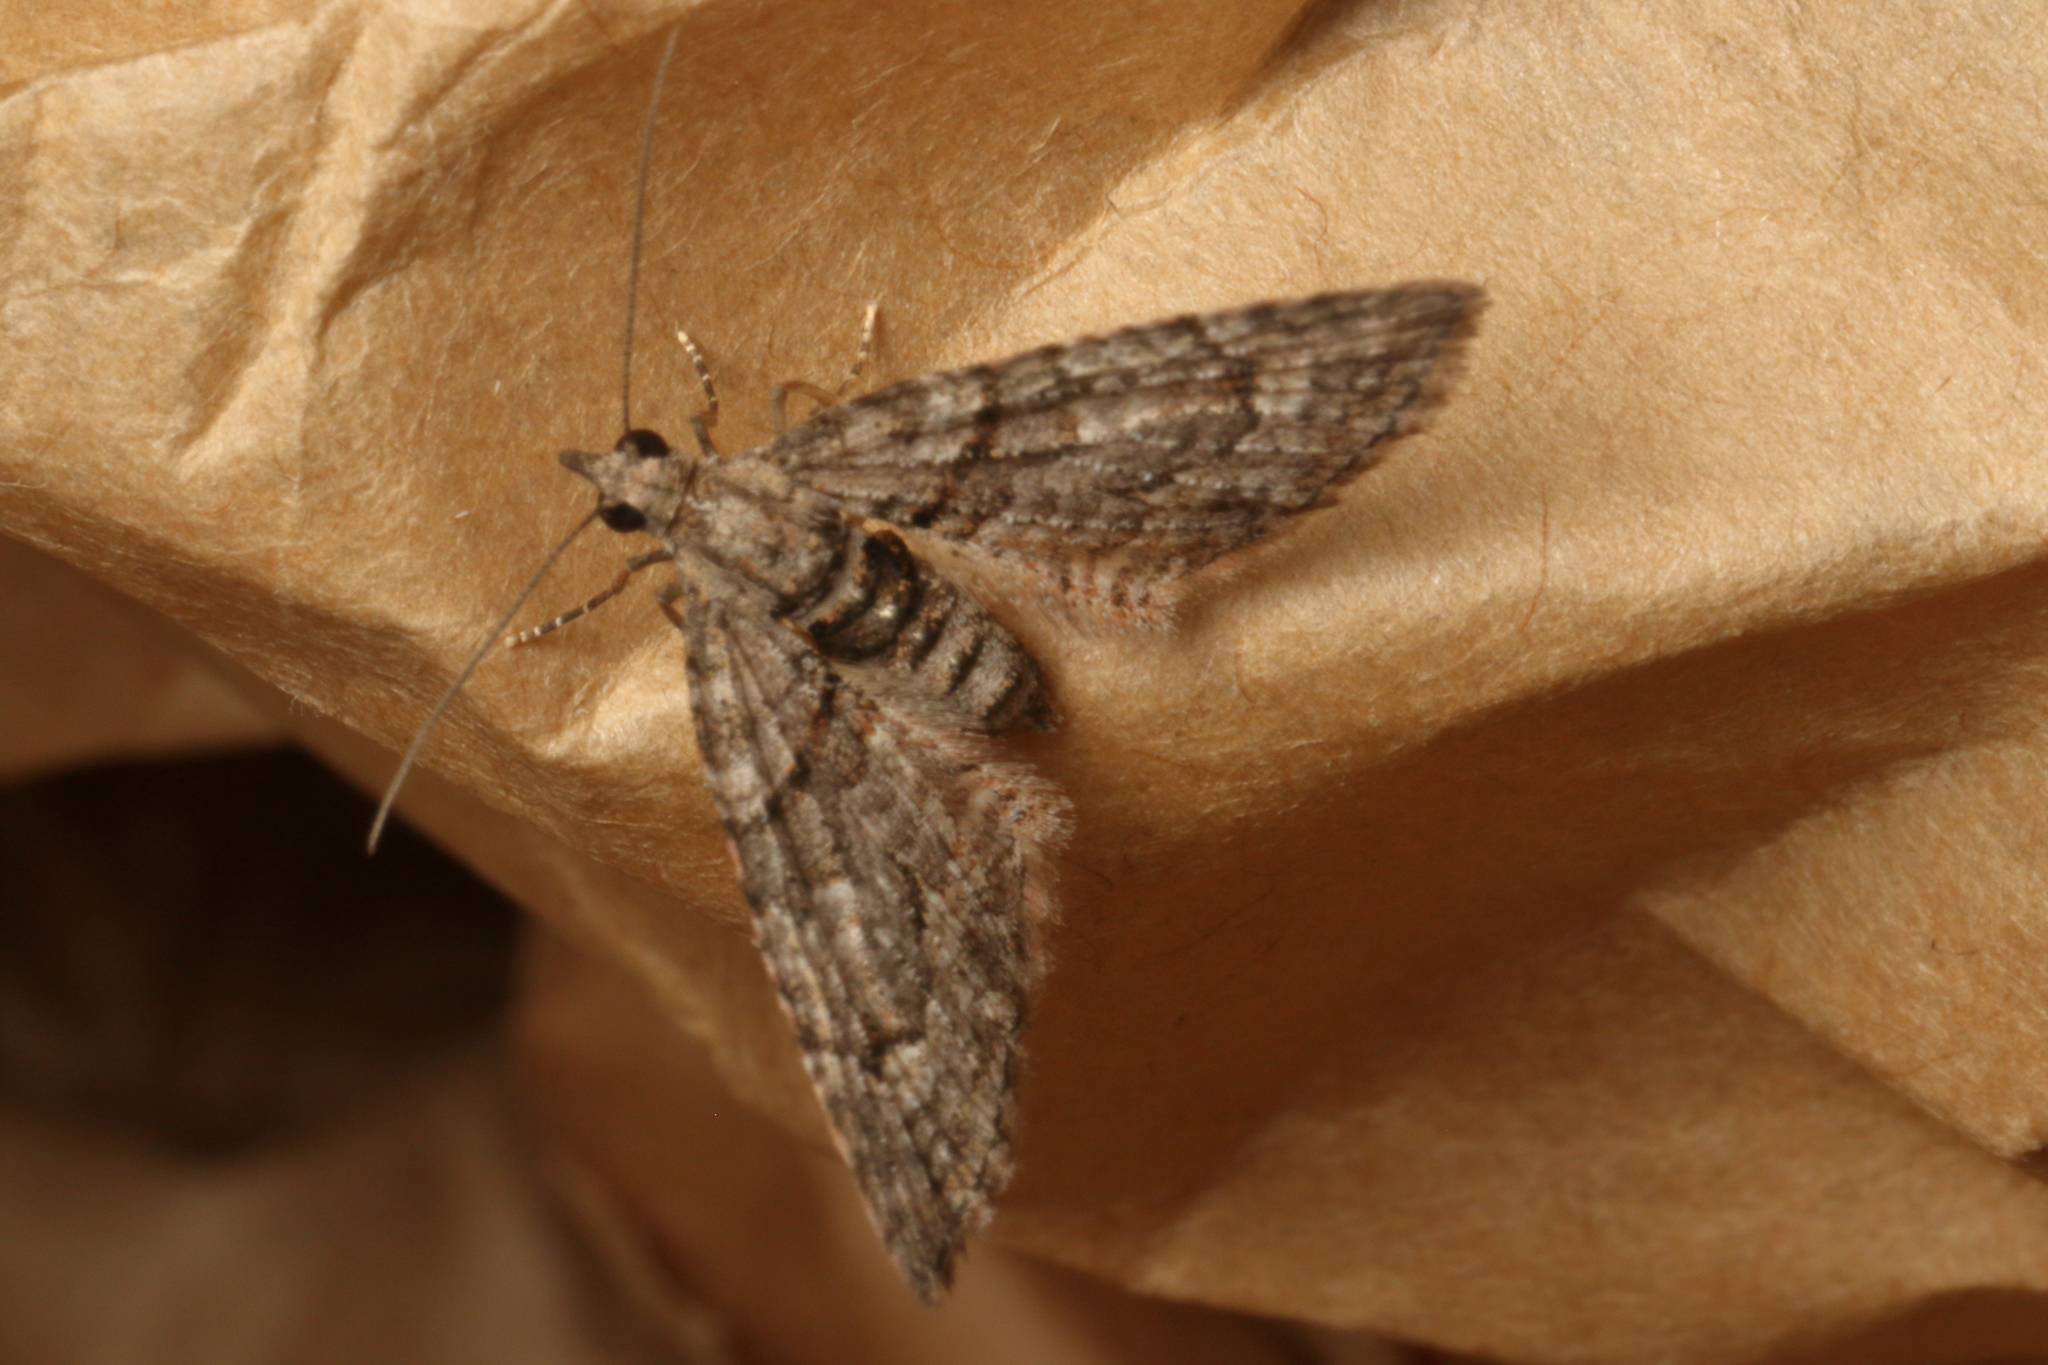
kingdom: Animalia
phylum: Arthropoda
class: Insecta
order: Lepidoptera
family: Geometridae
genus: Phrissogonus
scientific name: Phrissogonus laticostata
